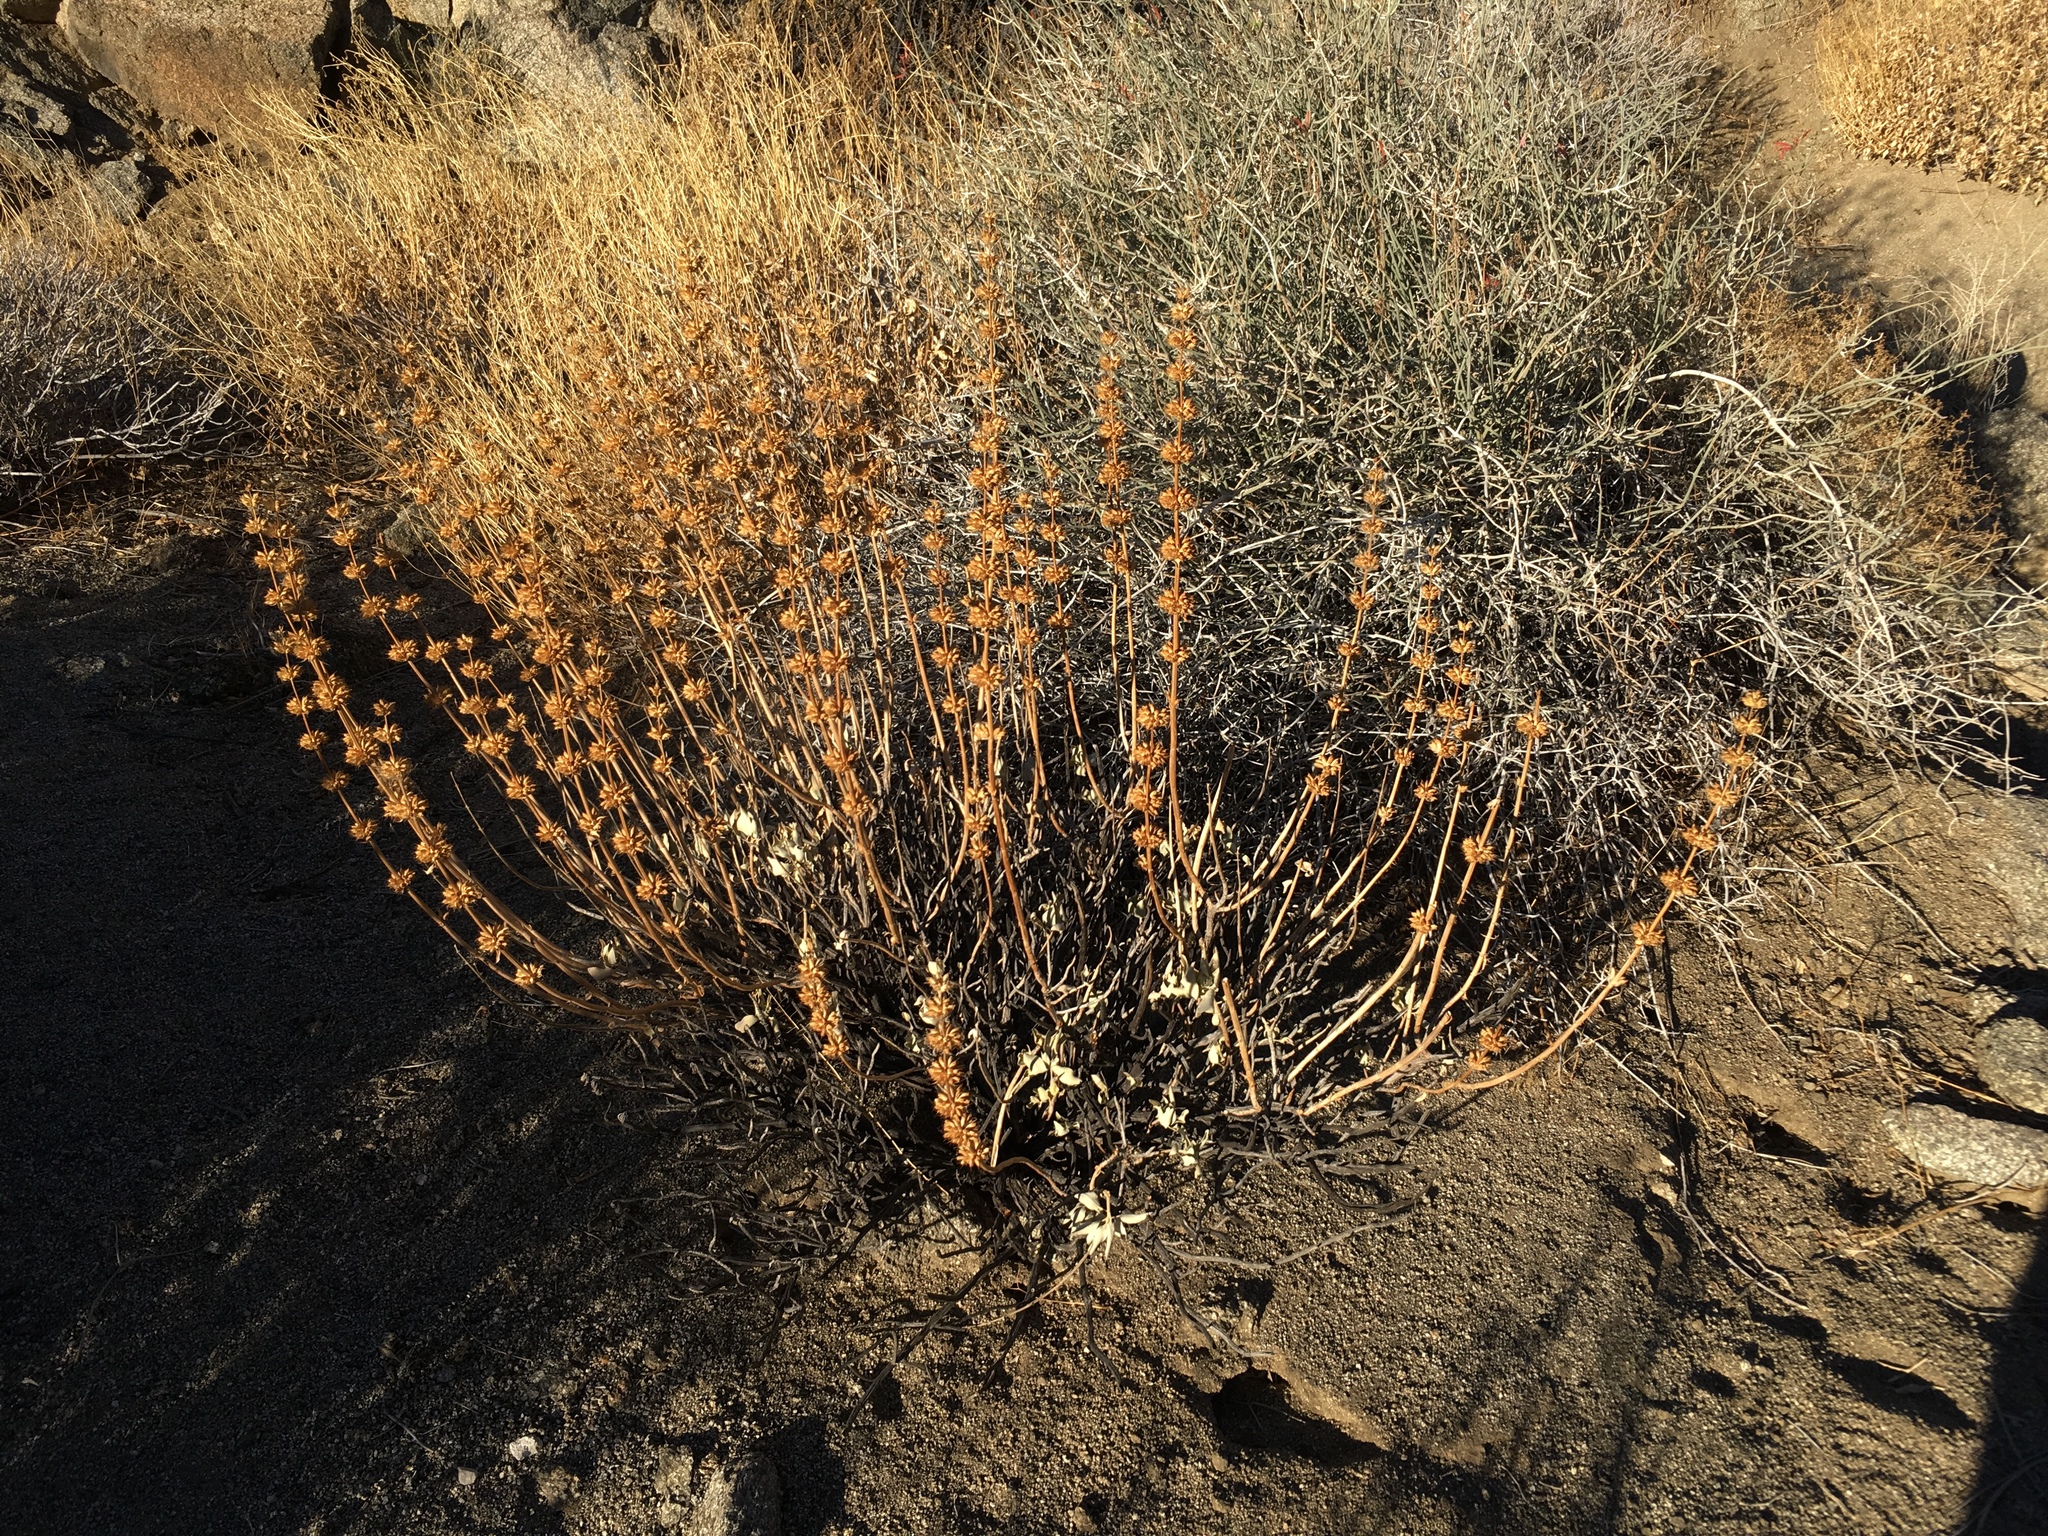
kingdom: Plantae
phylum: Tracheophyta
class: Magnoliopsida
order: Lamiales
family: Lamiaceae
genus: Salvia
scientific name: Salvia vaseyi
